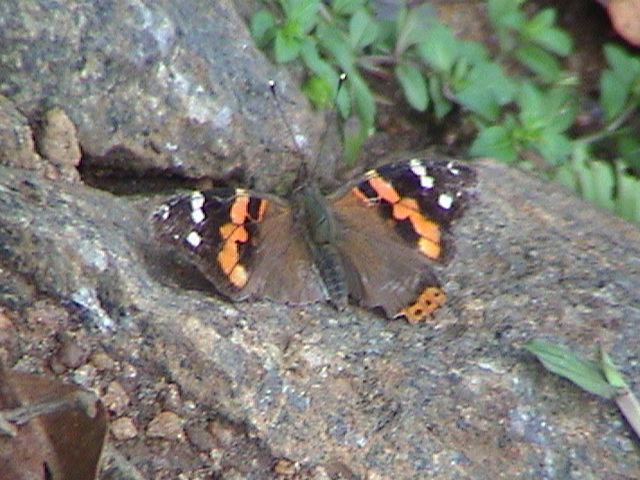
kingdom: Animalia
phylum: Arthropoda
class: Insecta
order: Lepidoptera
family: Nymphalidae
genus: Vanessa
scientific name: Vanessa indica
